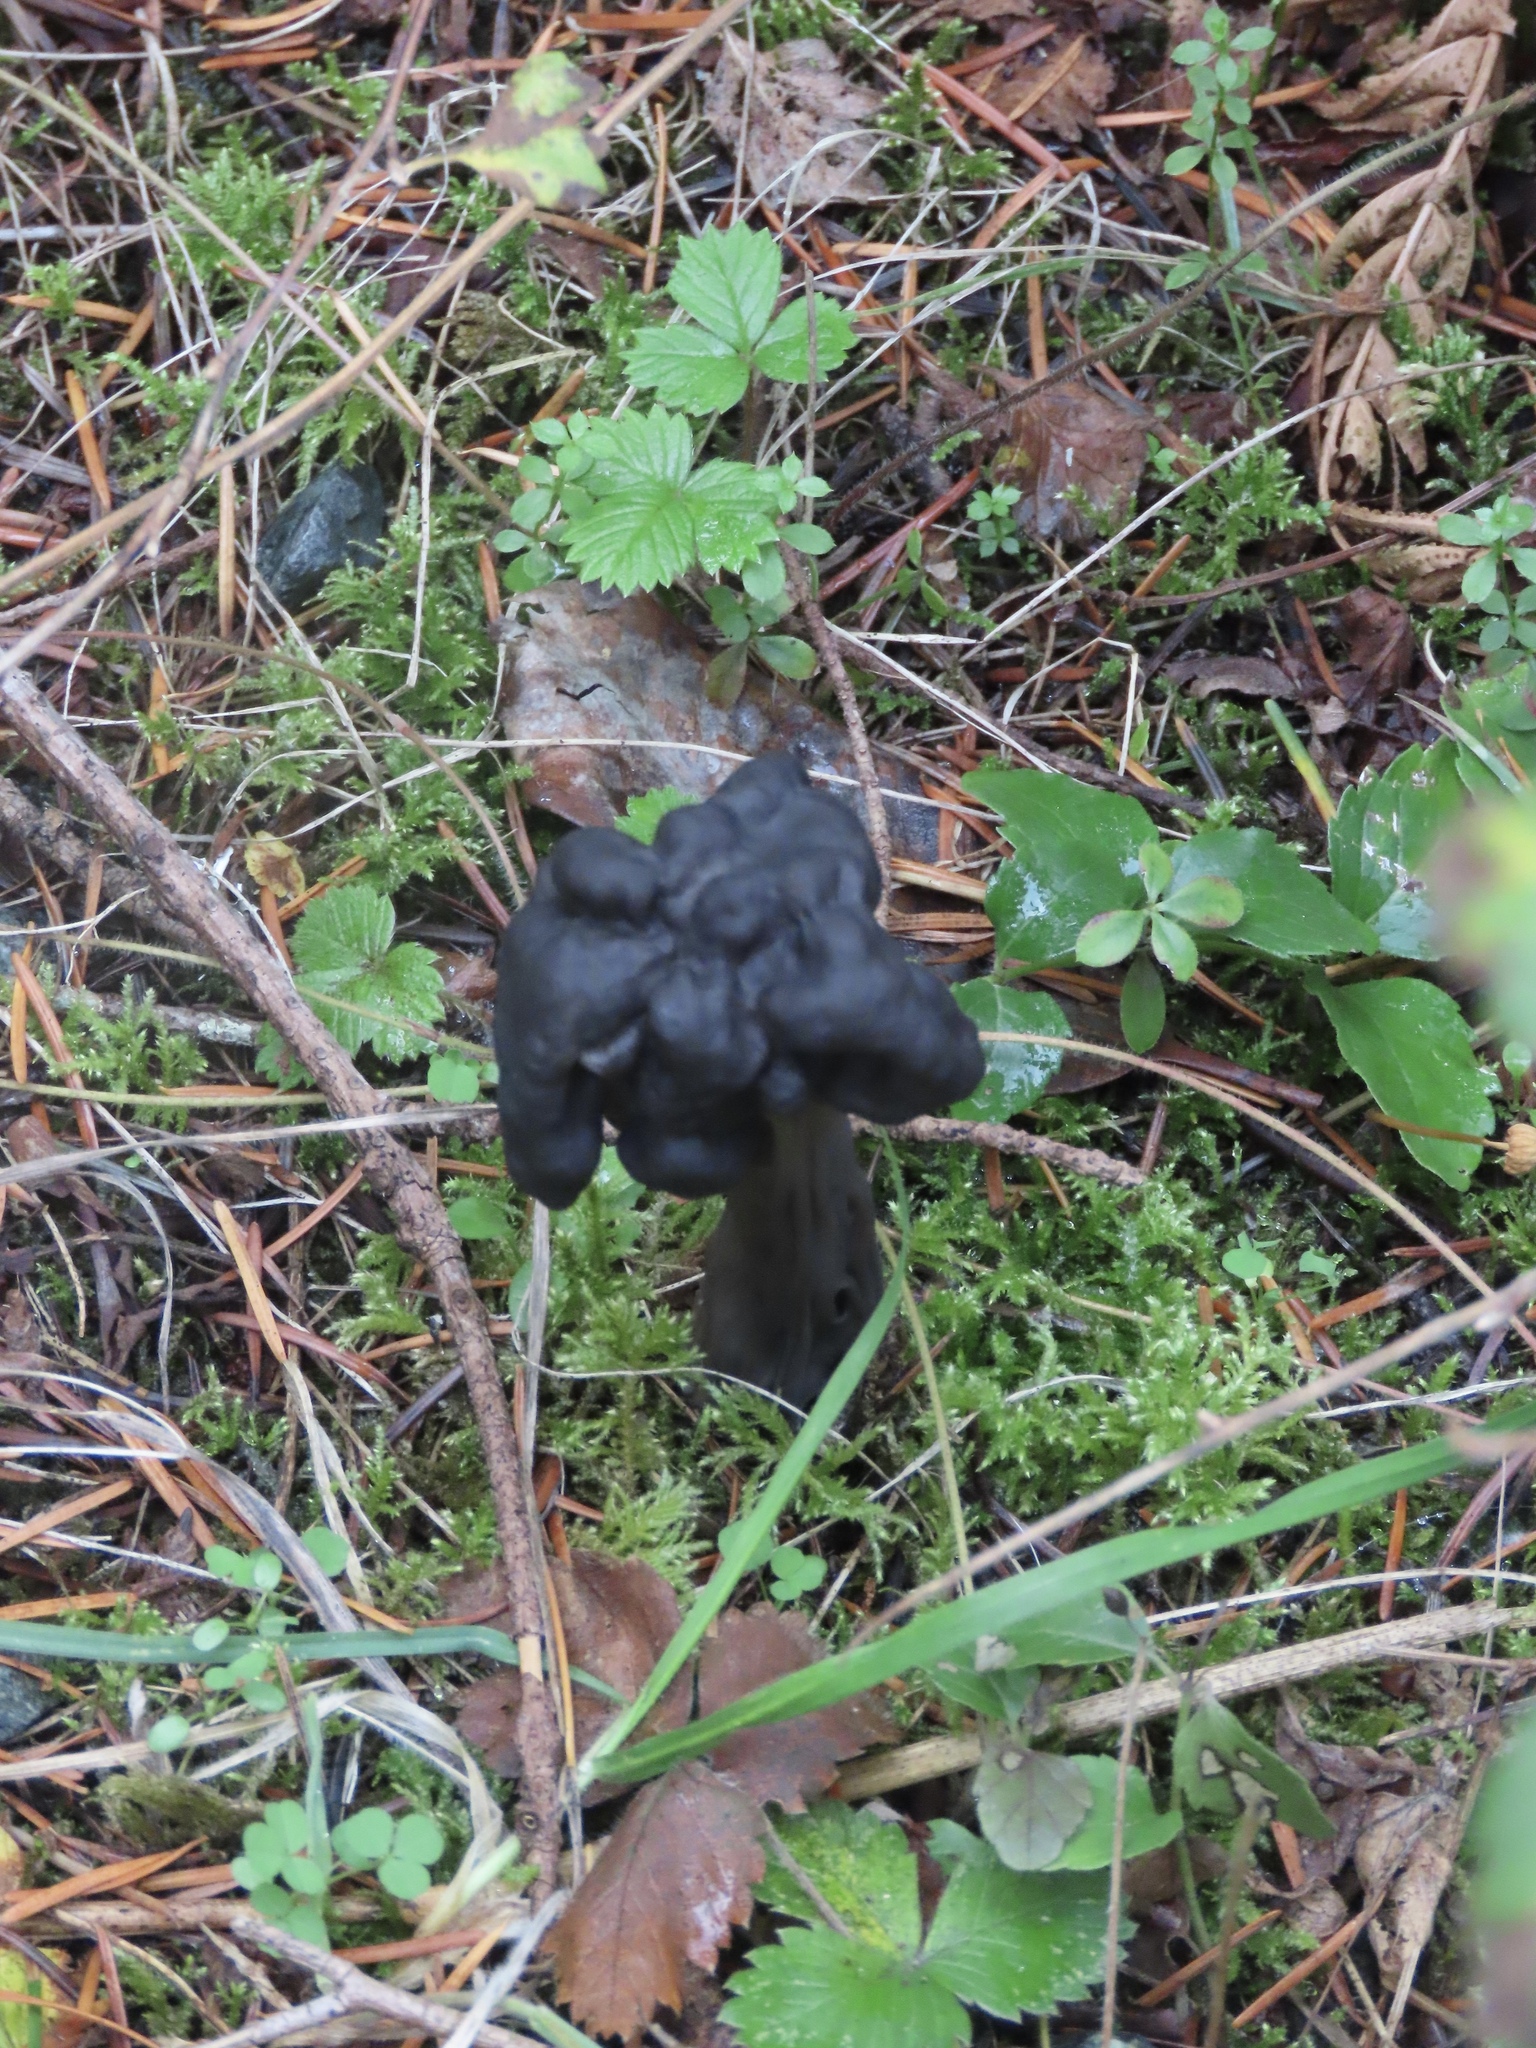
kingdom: Fungi
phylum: Ascomycota
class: Pezizomycetes
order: Pezizales
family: Helvellaceae
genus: Helvella
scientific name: Helvella vespertina
